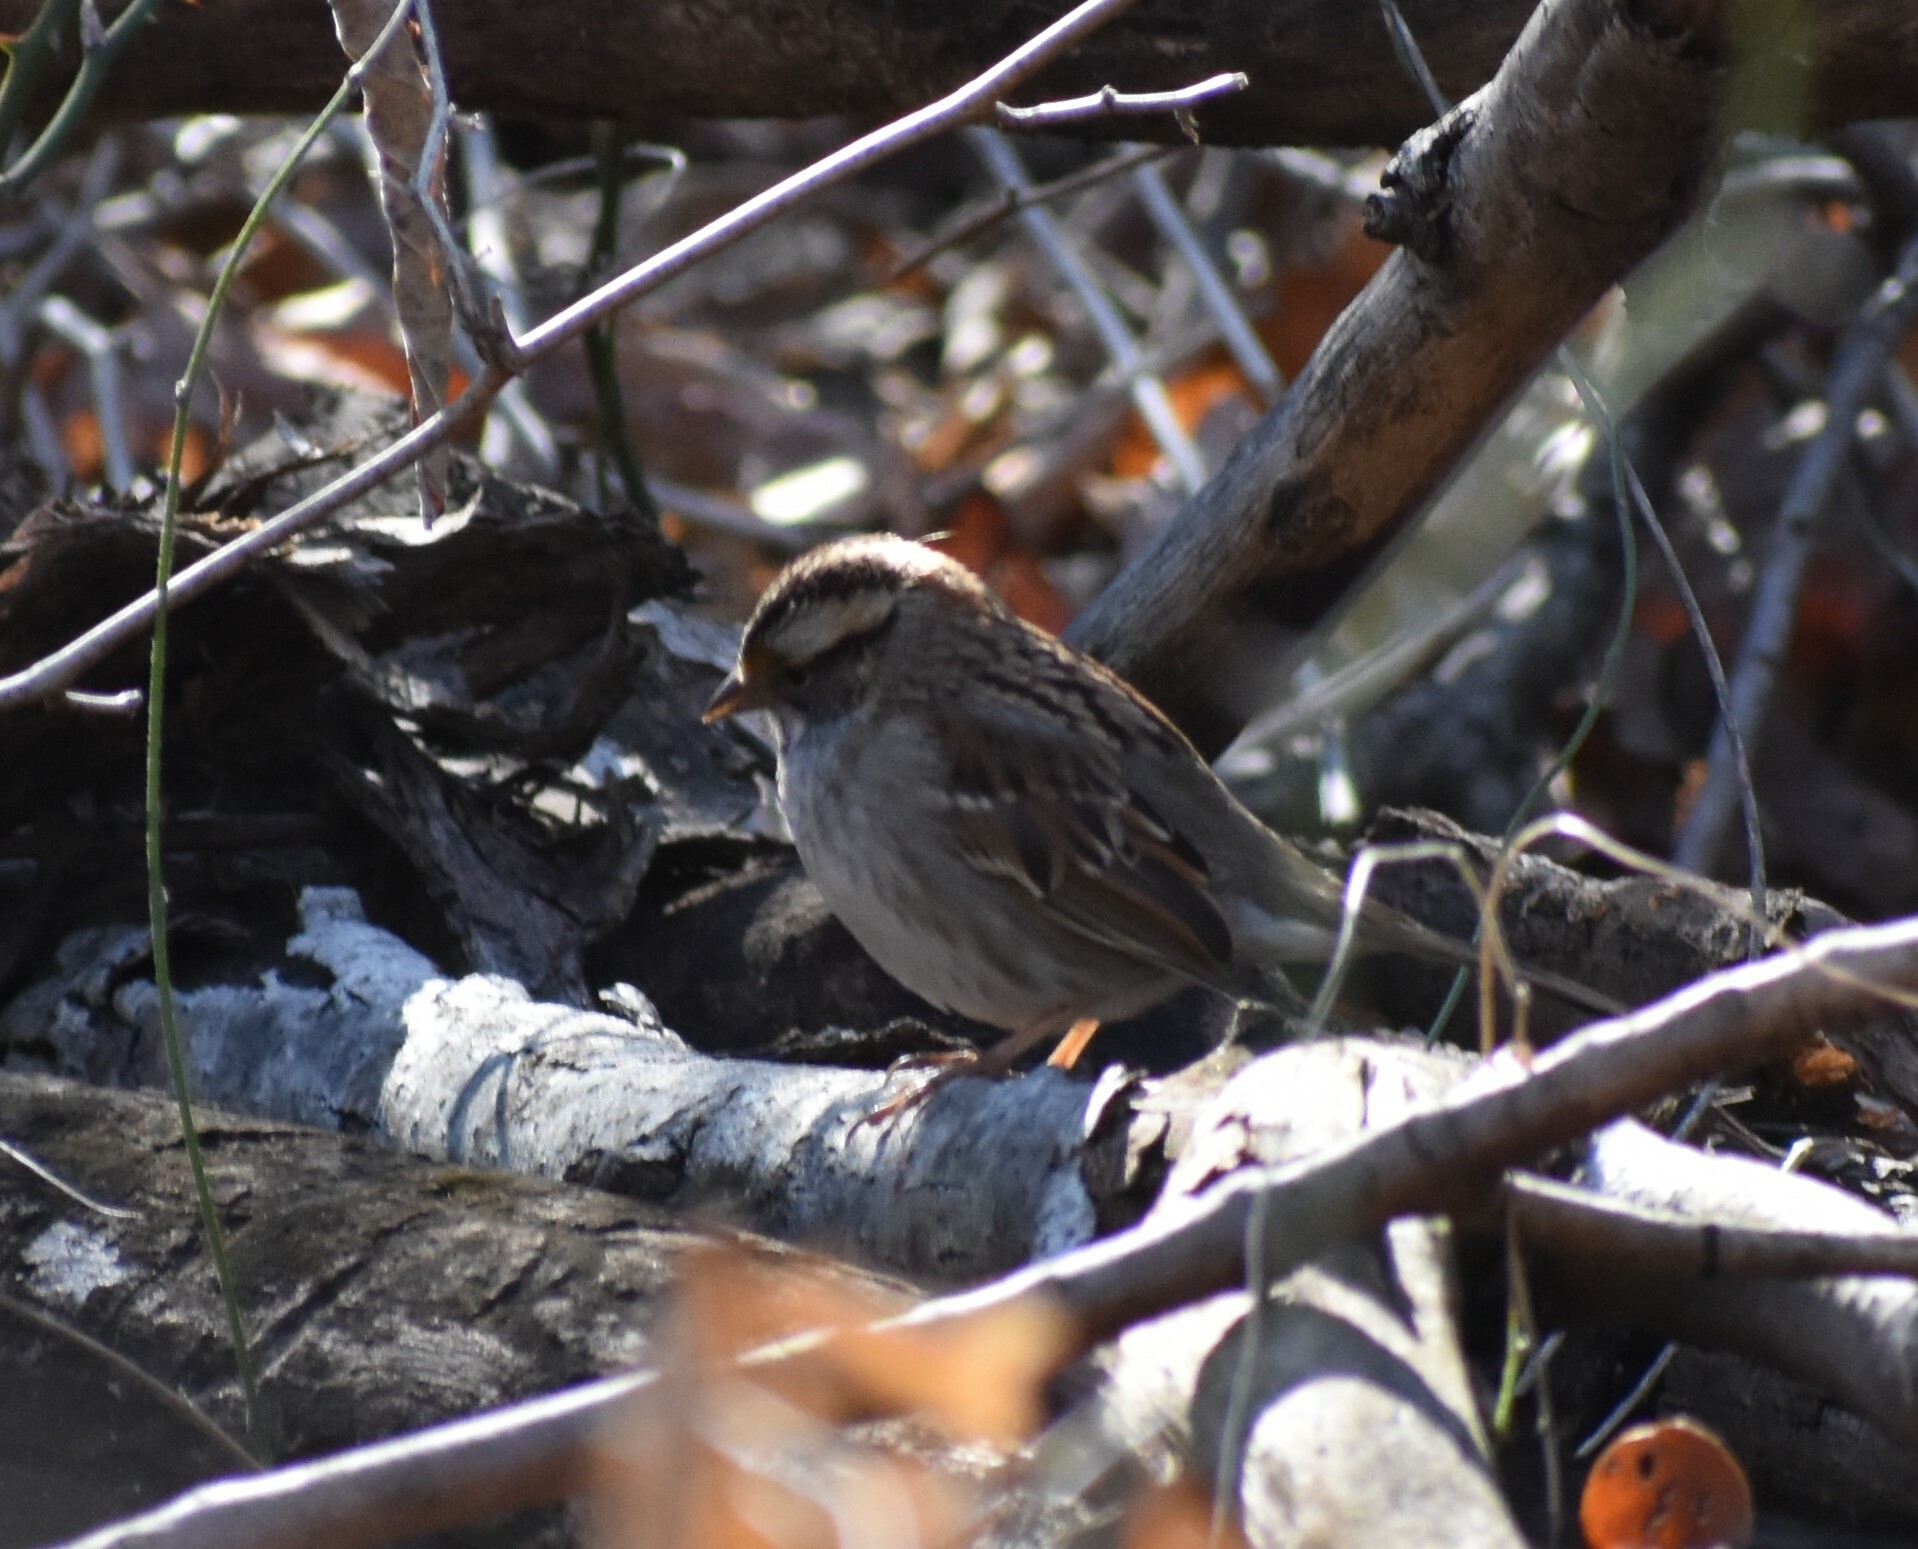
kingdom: Animalia
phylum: Chordata
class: Aves
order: Passeriformes
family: Passerellidae
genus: Zonotrichia
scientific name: Zonotrichia albicollis
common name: White-throated sparrow
